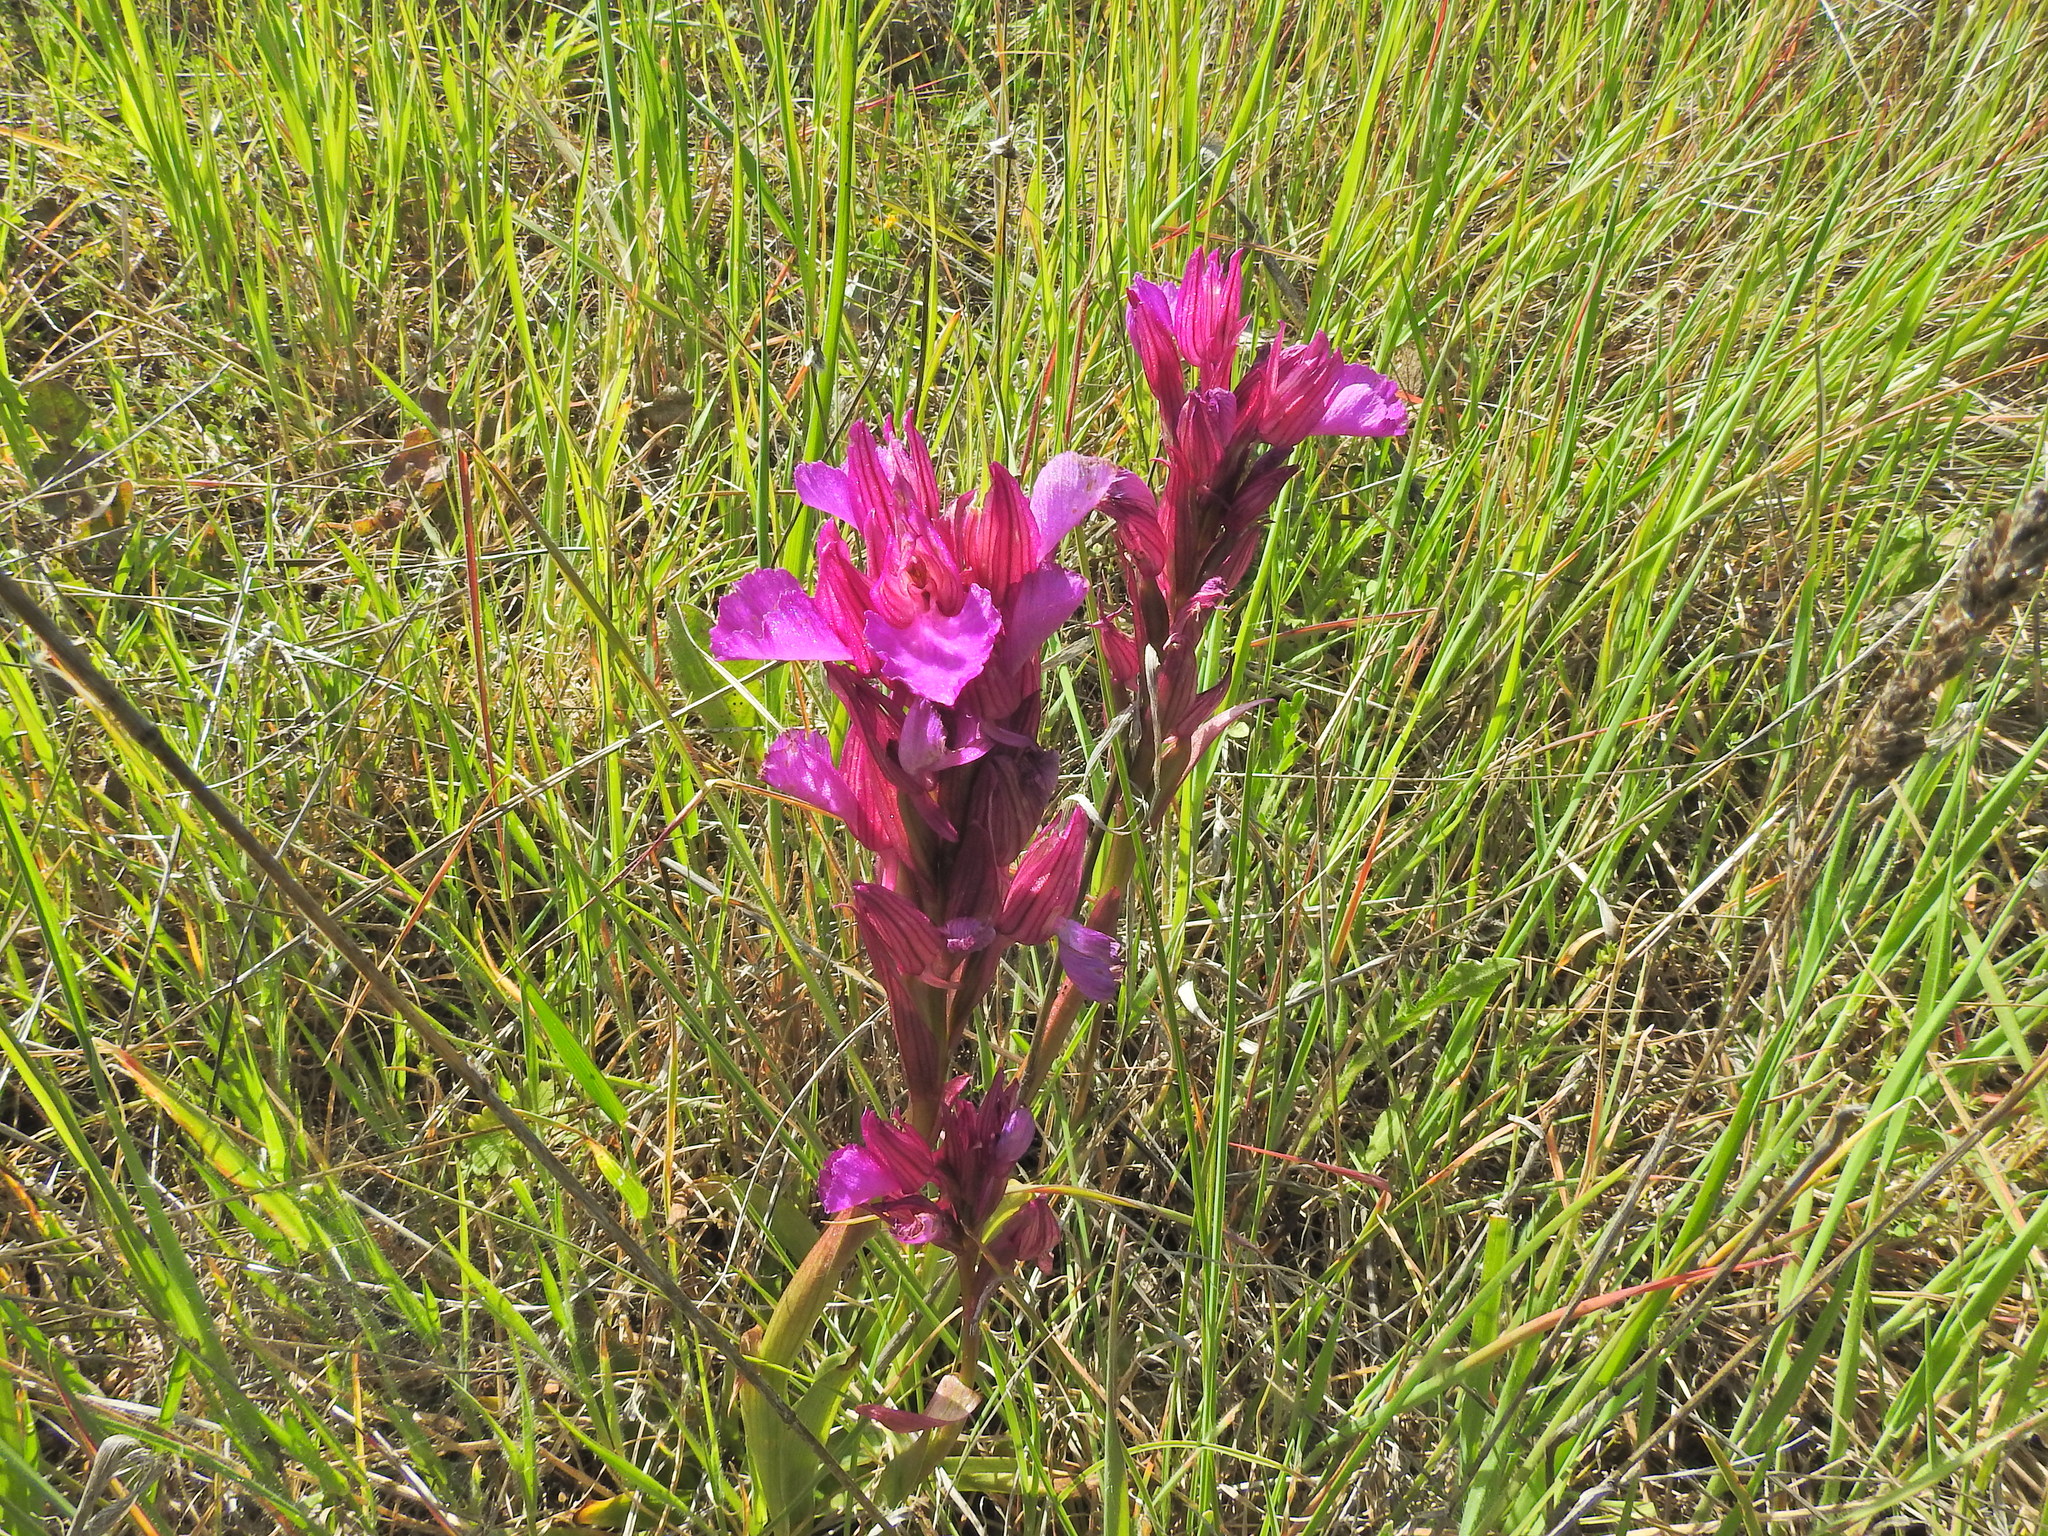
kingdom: Plantae
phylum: Tracheophyta
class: Liliopsida
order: Asparagales
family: Orchidaceae
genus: Anacamptis
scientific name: Anacamptis papilionacea
